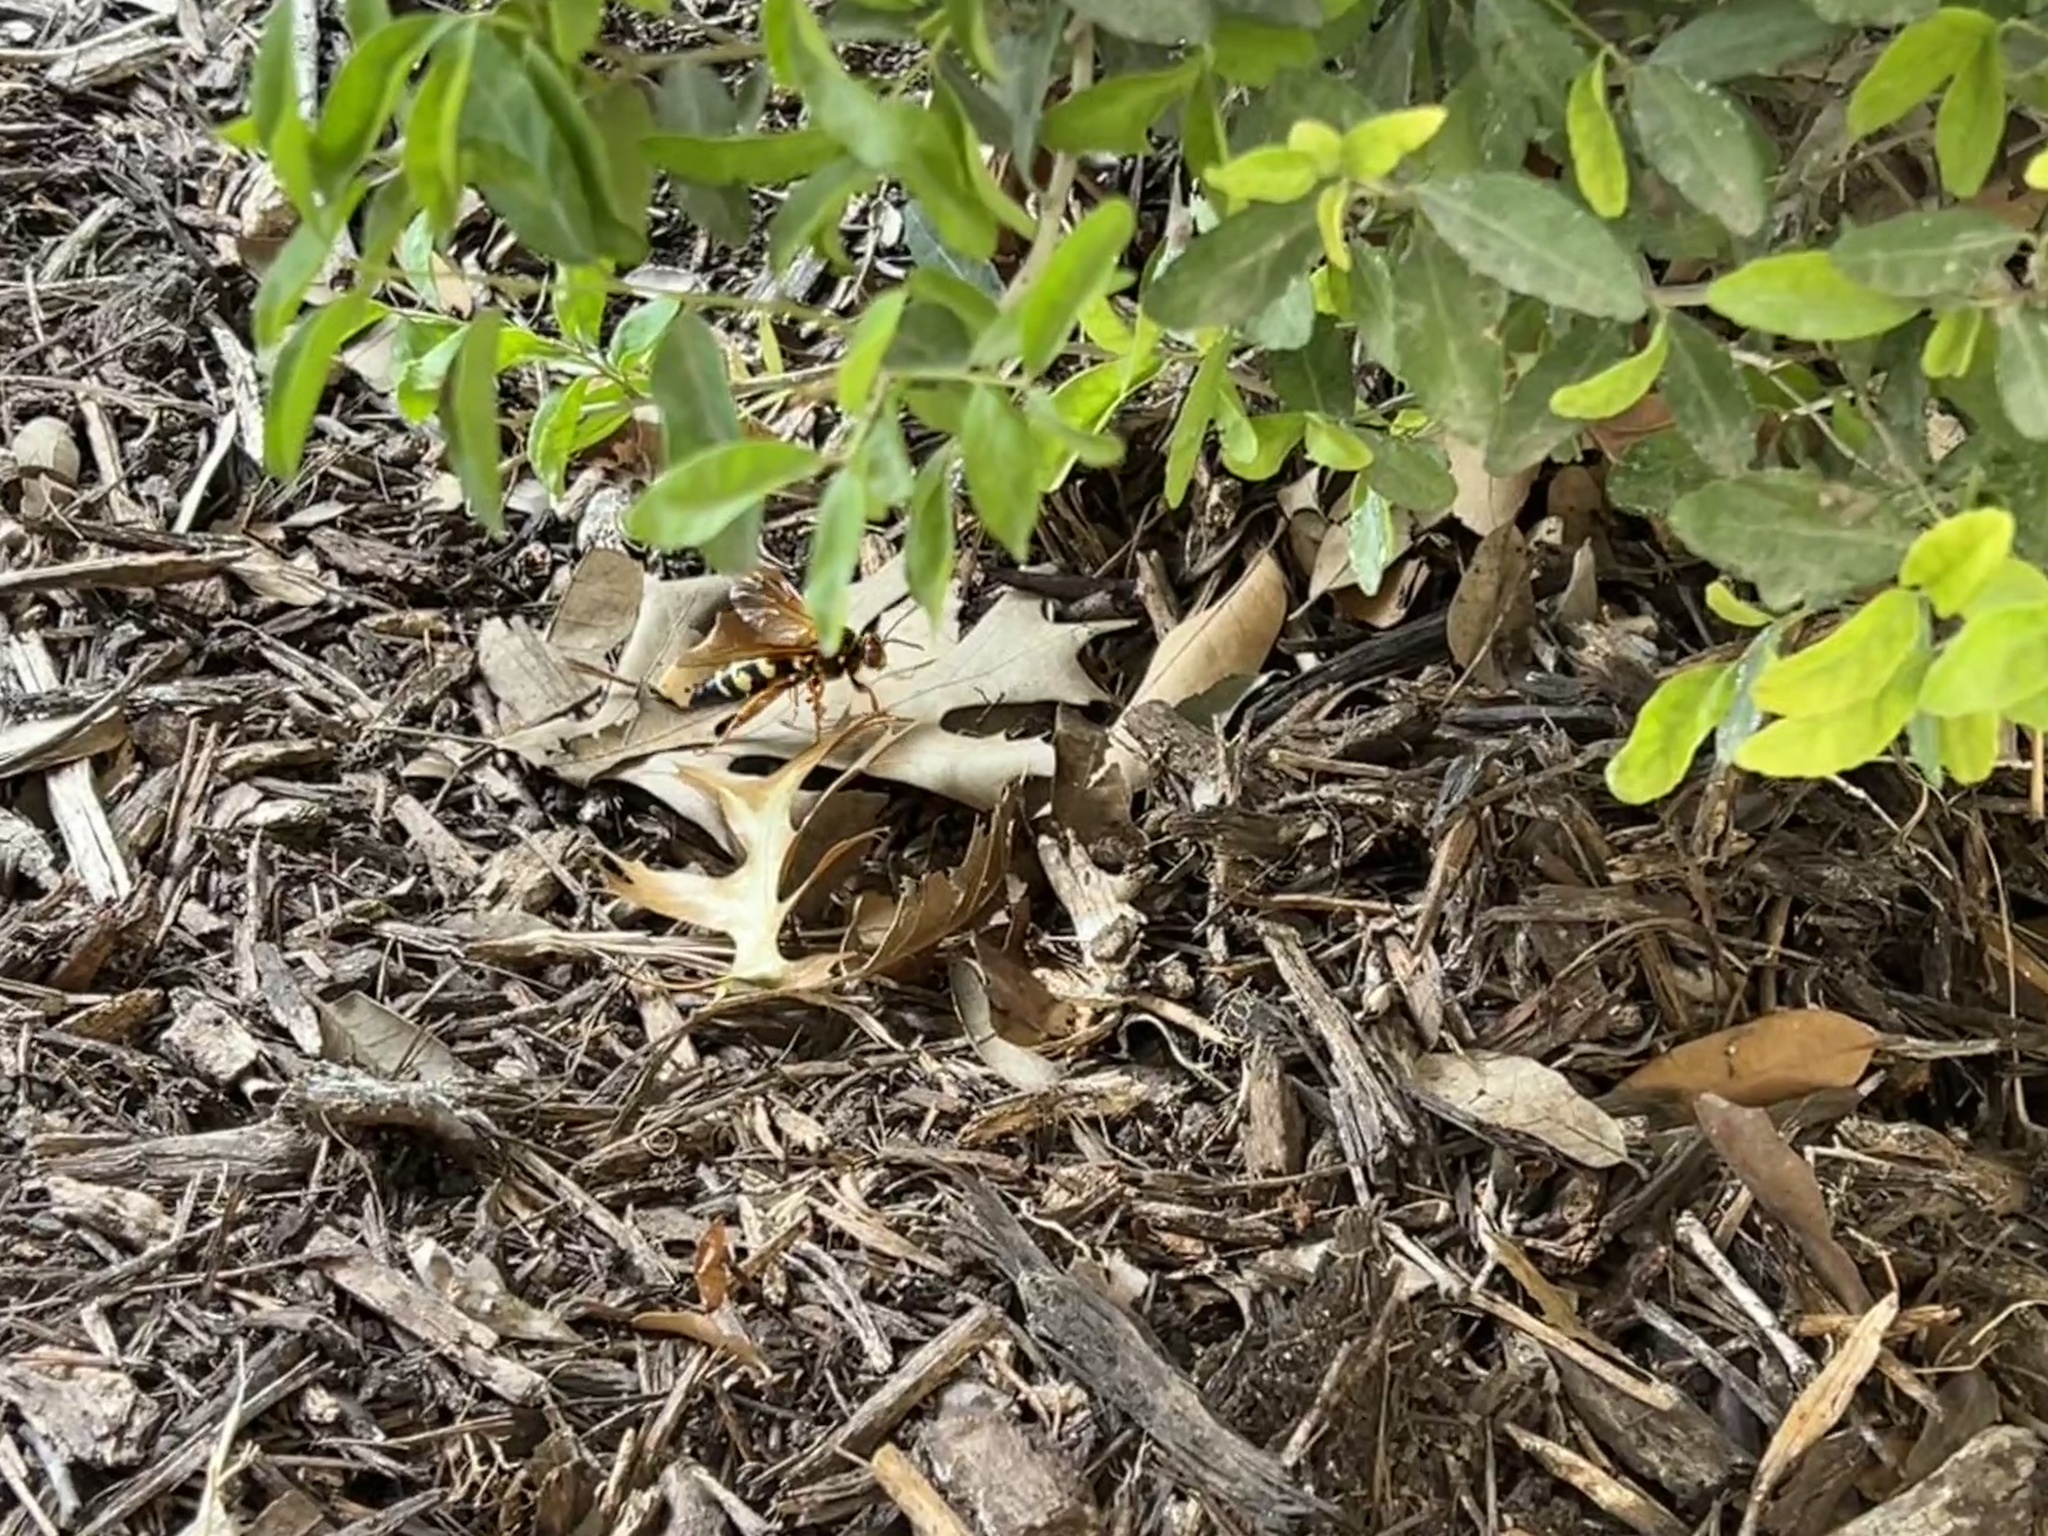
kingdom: Animalia
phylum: Arthropoda
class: Insecta
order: Hymenoptera
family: Crabronidae
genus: Sphecius
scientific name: Sphecius speciosus
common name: Cicada killer
